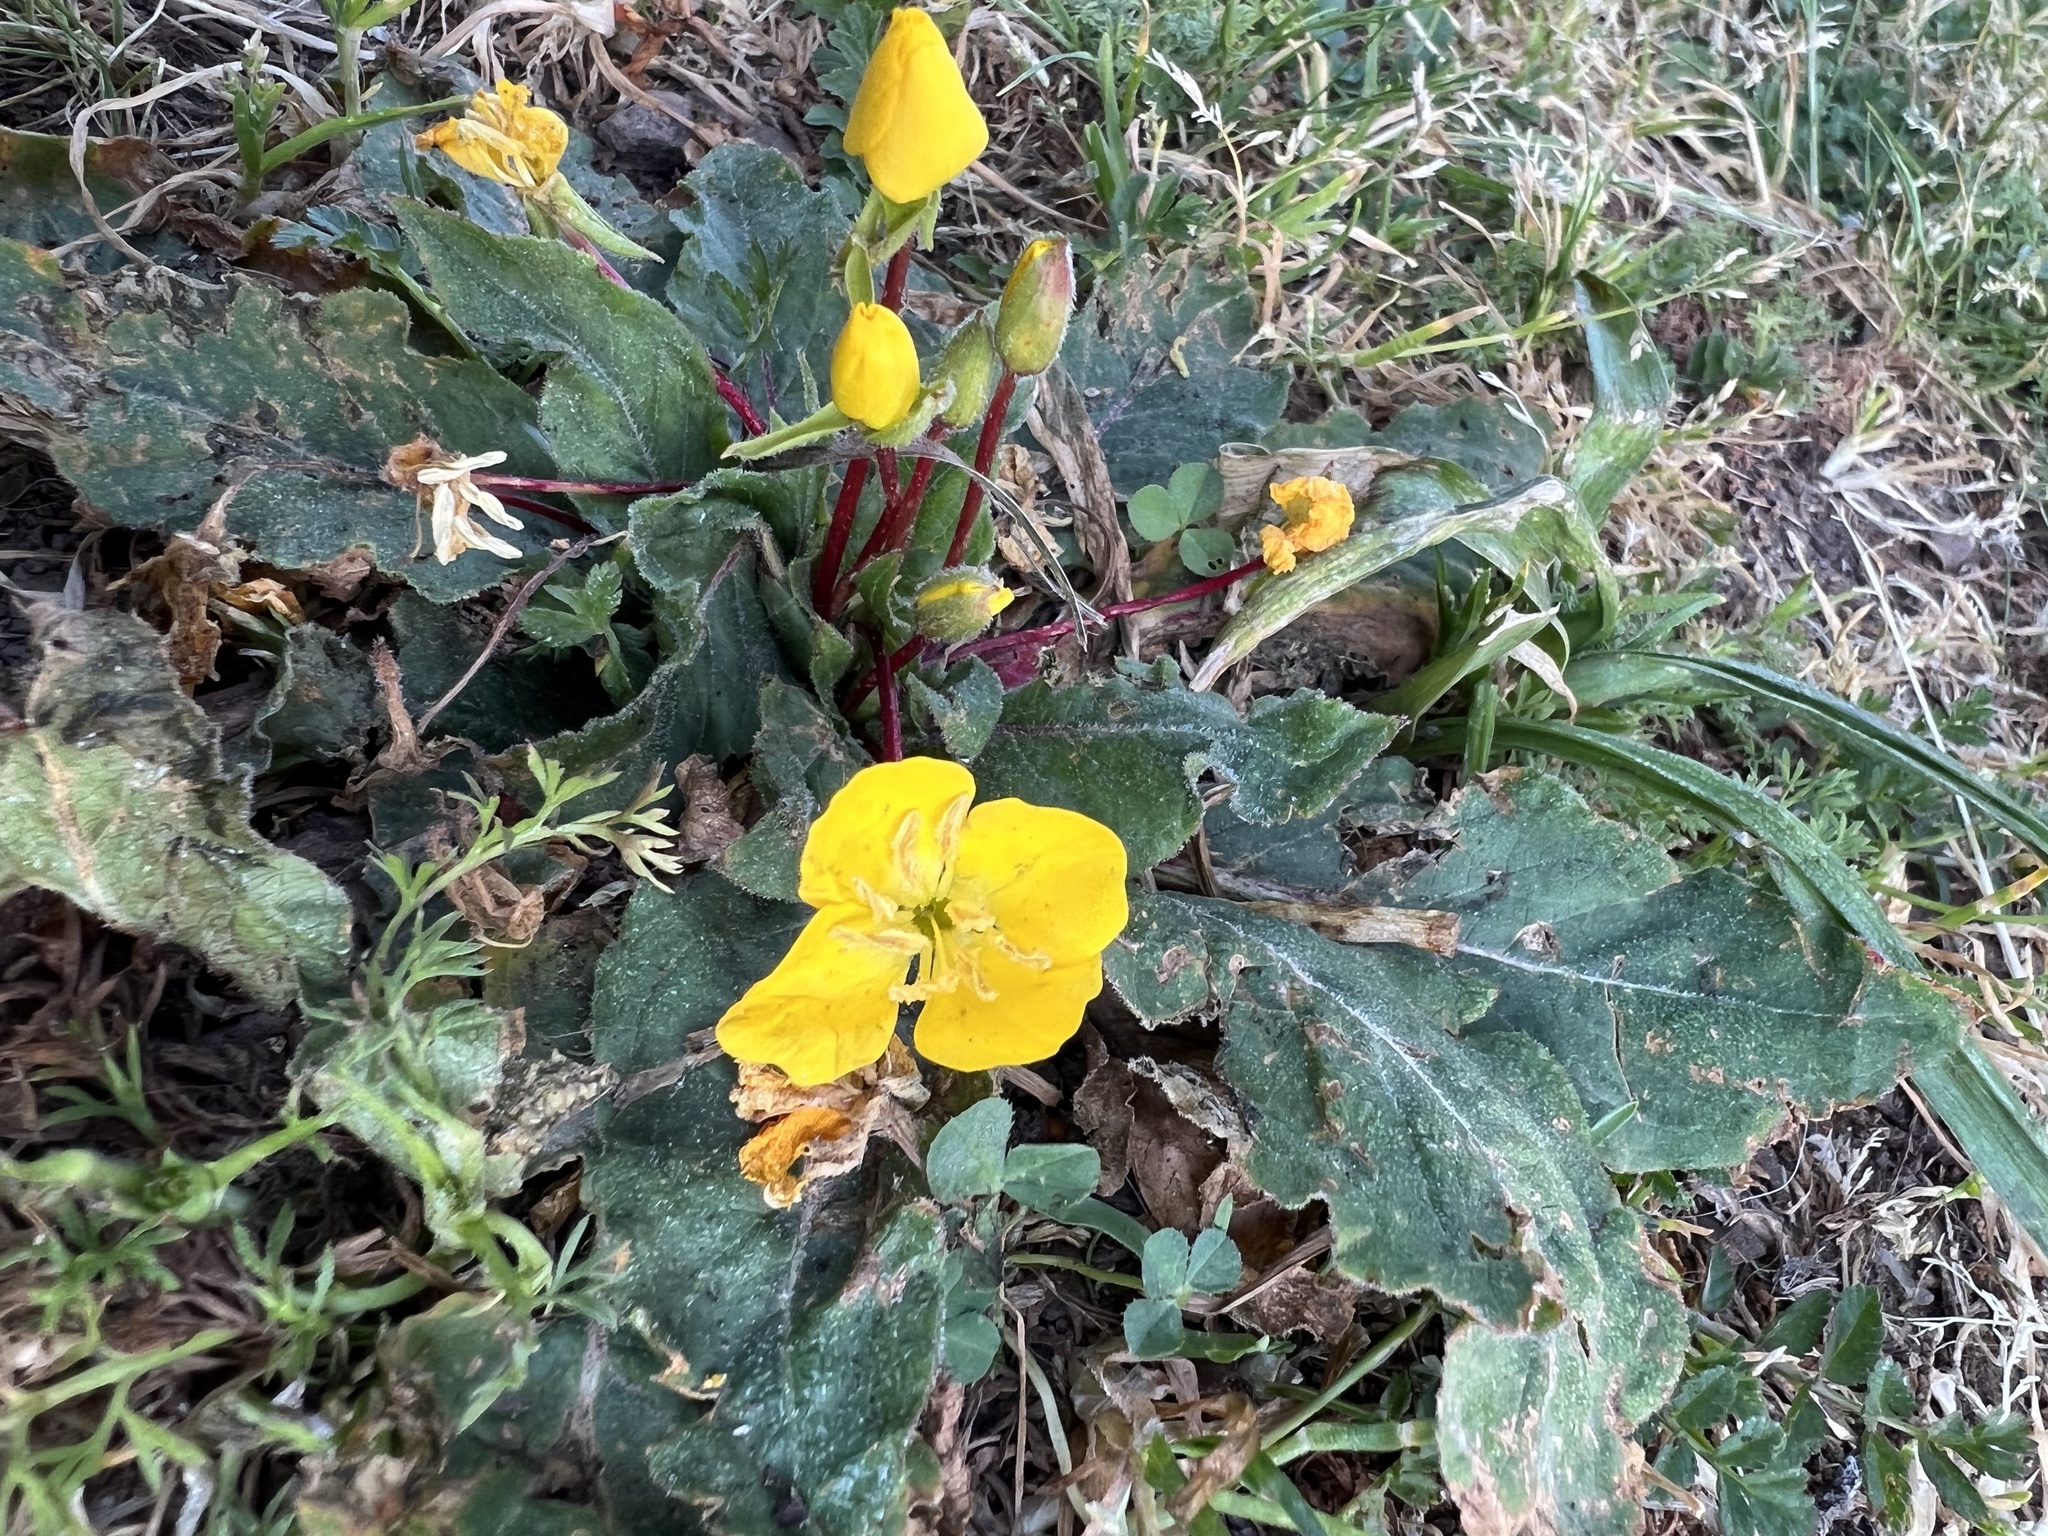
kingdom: Plantae
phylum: Tracheophyta
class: Magnoliopsida
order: Myrtales
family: Onagraceae
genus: Taraxia
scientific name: Taraxia ovata
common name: Goldeneggs
